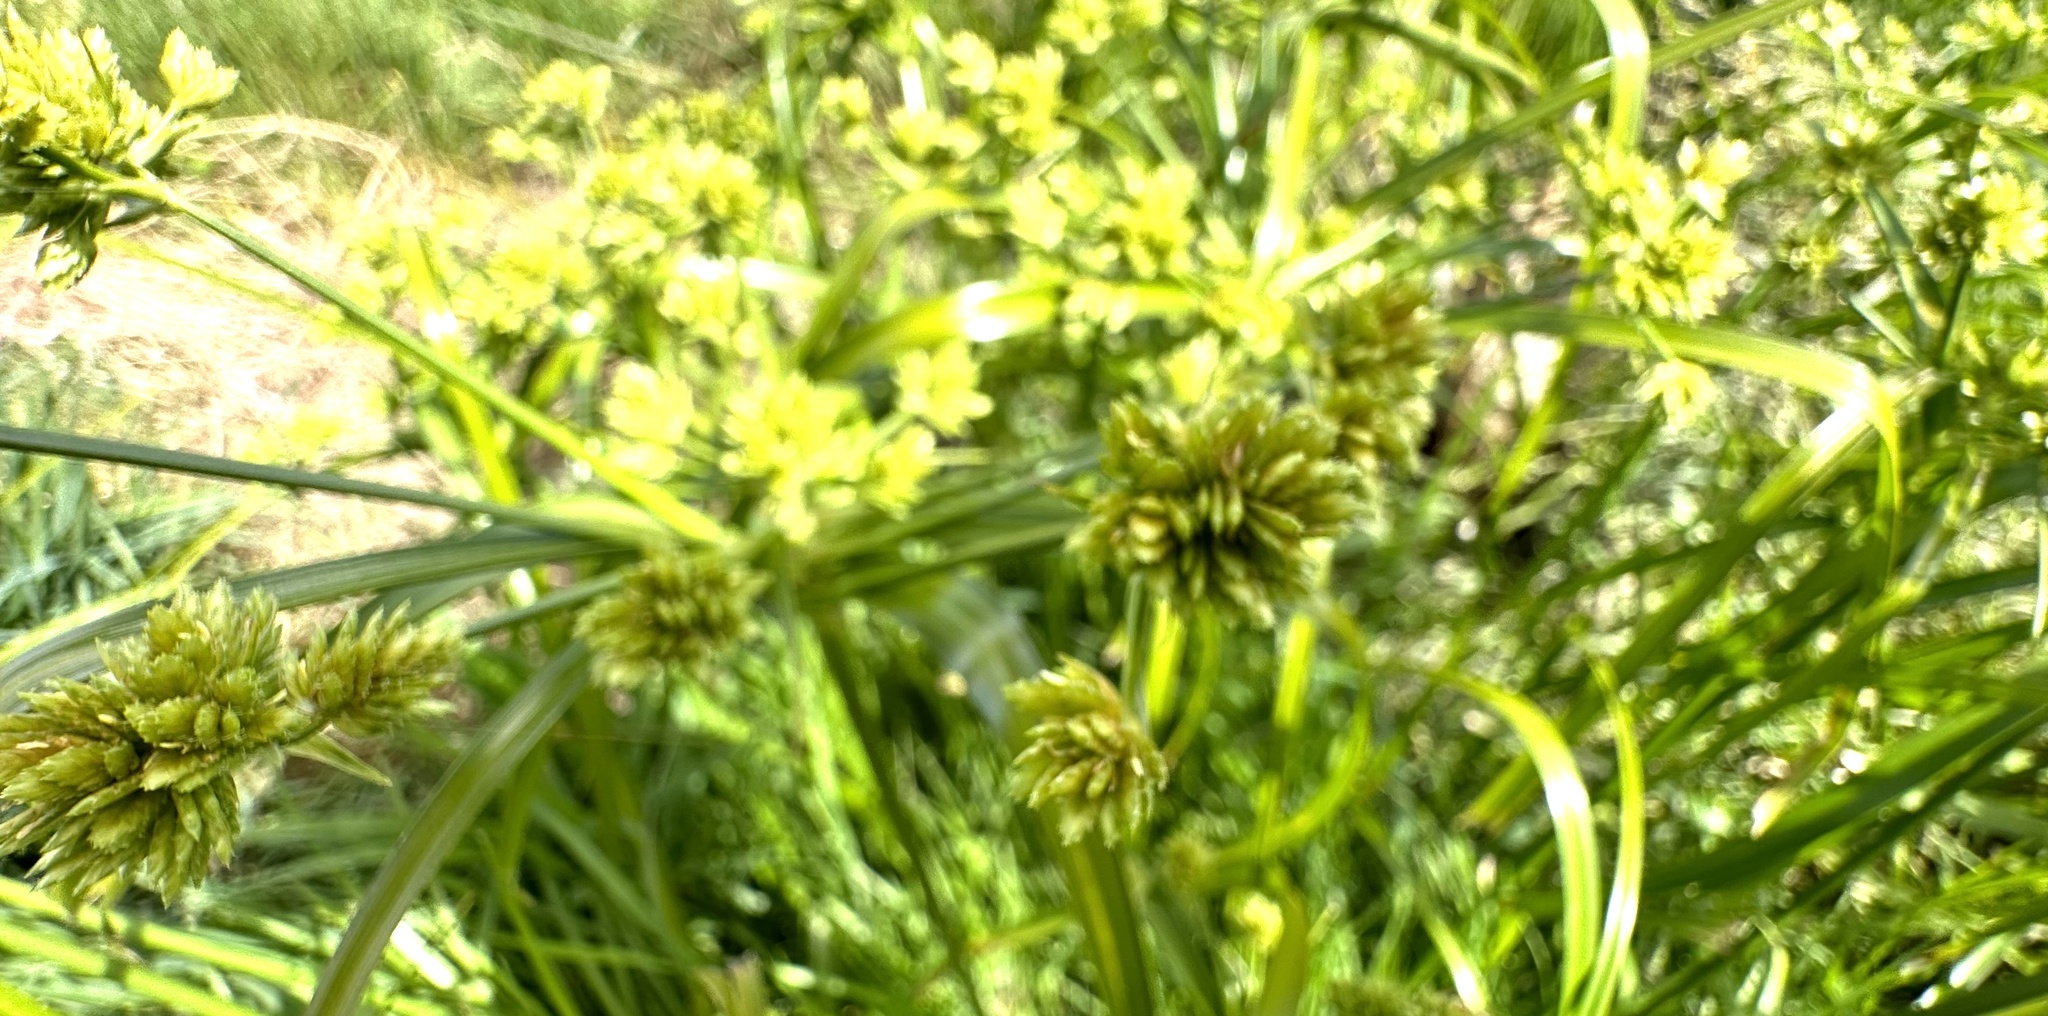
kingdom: Plantae
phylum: Tracheophyta
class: Liliopsida
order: Poales
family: Cyperaceae
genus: Cyperus
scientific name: Cyperus eragrostis
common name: Tall flatsedge
